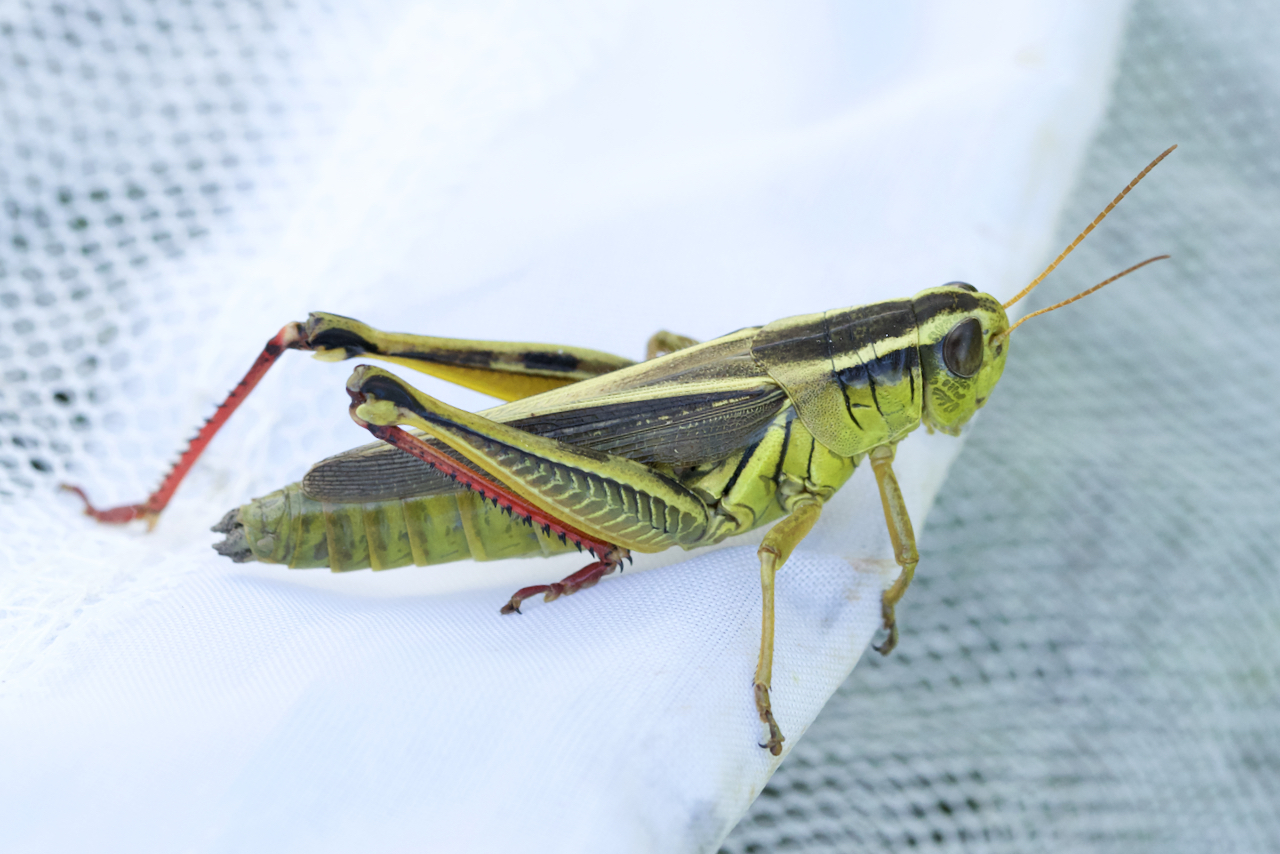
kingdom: Animalia
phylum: Arthropoda
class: Insecta
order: Orthoptera
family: Acrididae
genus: Melanoplus
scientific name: Melanoplus bivittatus
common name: Two-striped grasshopper
